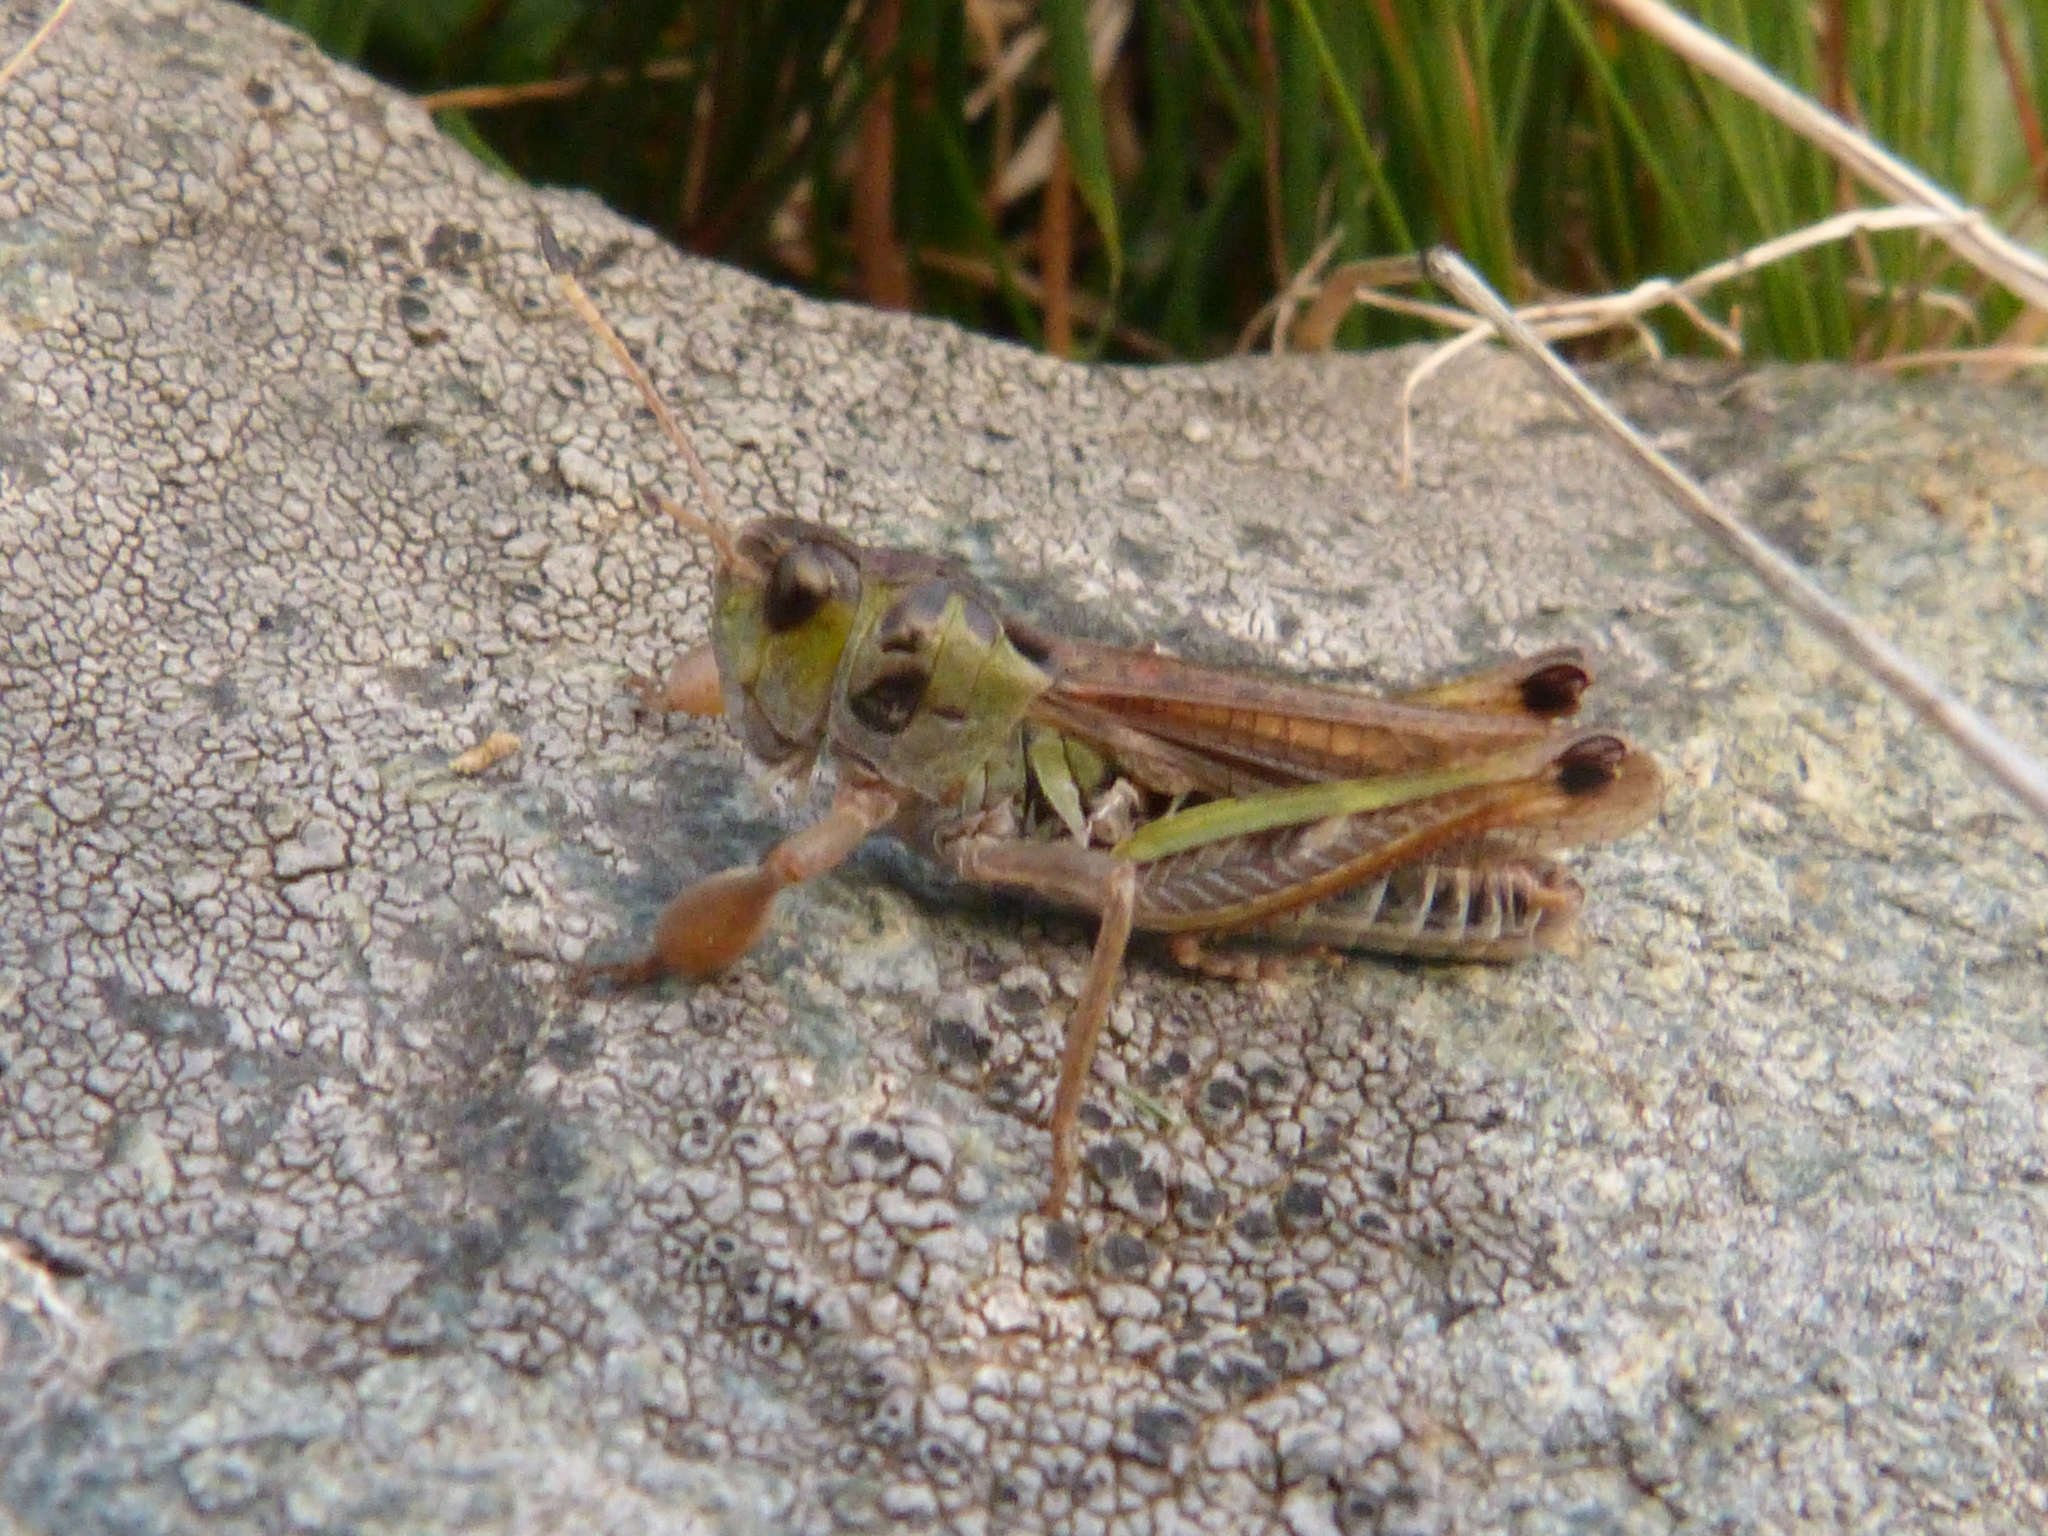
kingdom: Animalia
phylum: Arthropoda
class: Insecta
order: Orthoptera
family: Acrididae
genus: Gomphocerus
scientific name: Gomphocerus sibiricus
